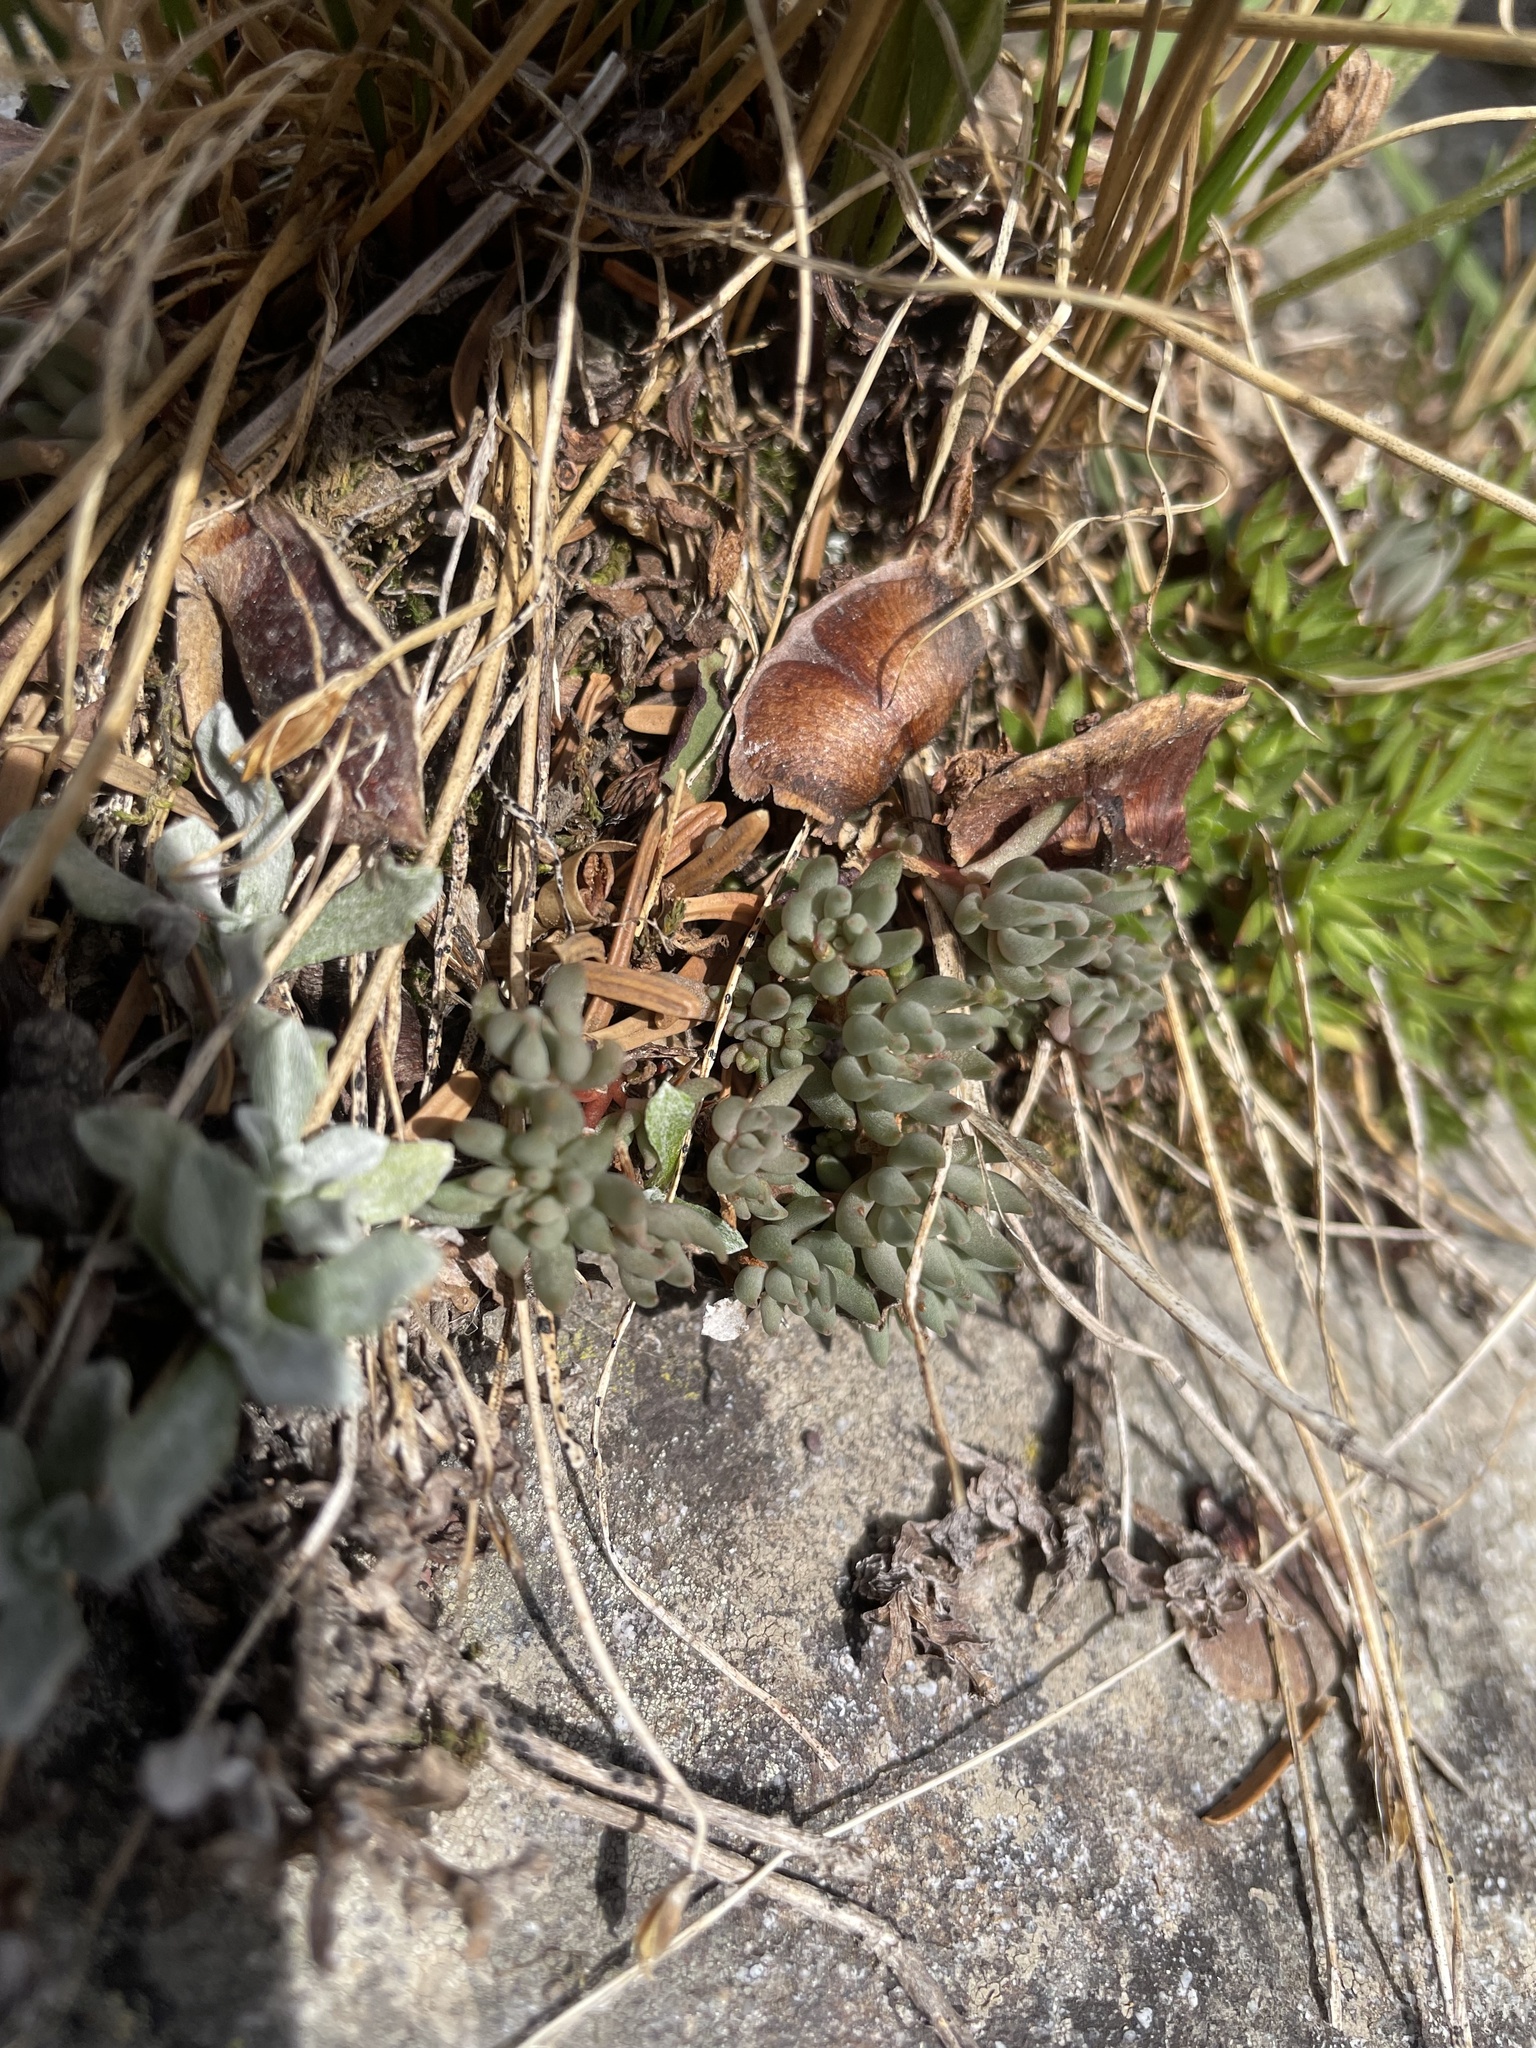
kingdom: Plantae
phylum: Tracheophyta
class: Magnoliopsida
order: Saxifragales
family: Crassulaceae
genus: Sedum
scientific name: Sedum lanceolatum
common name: Common stonecrop
